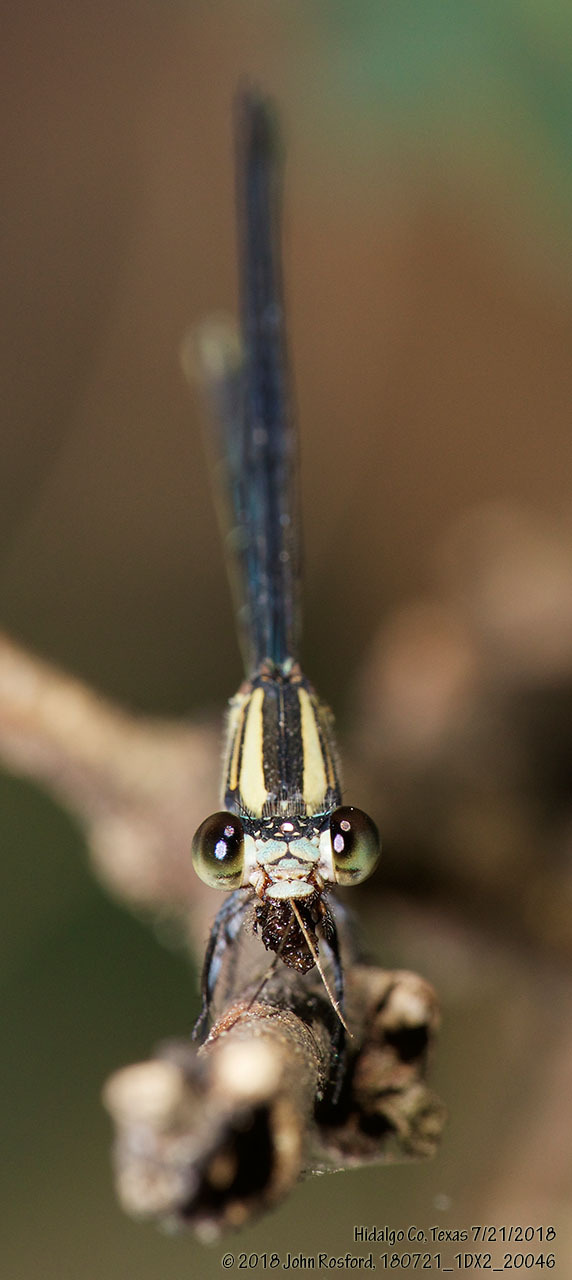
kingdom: Animalia
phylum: Arthropoda
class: Insecta
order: Odonata
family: Coenagrionidae
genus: Argia
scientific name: Argia translata
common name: Dusky dancer
